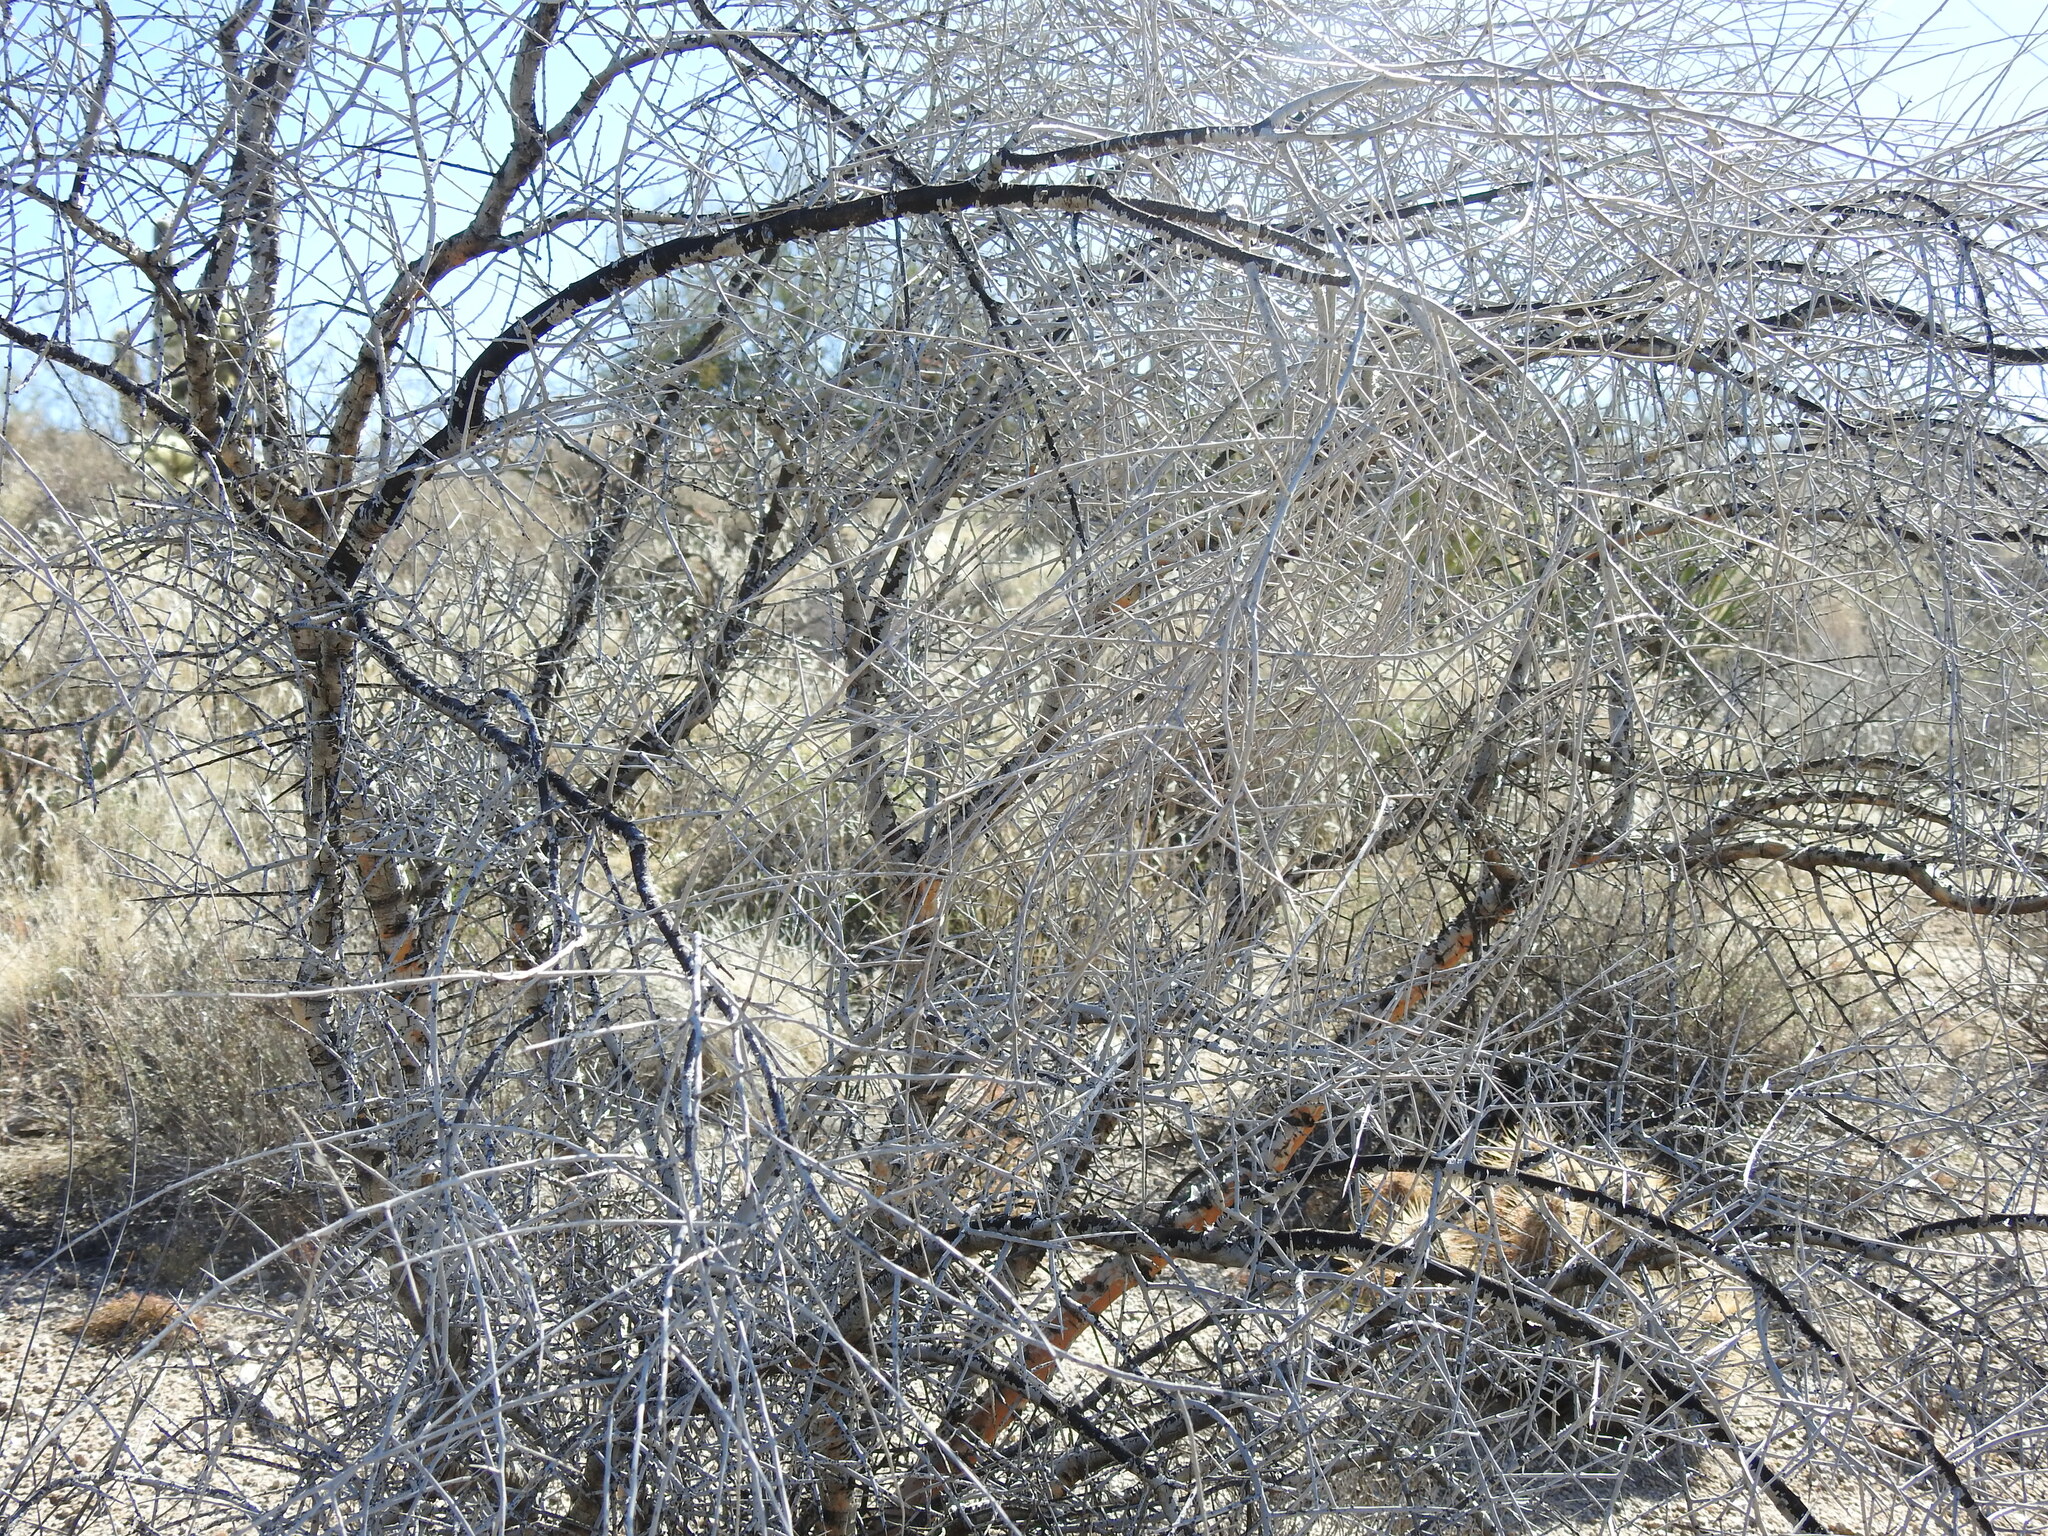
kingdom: Plantae
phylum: Tracheophyta
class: Magnoliopsida
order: Fabales
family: Fabaceae
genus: Parkinsonia
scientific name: Parkinsonia microphylla
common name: Yellow paloverde
